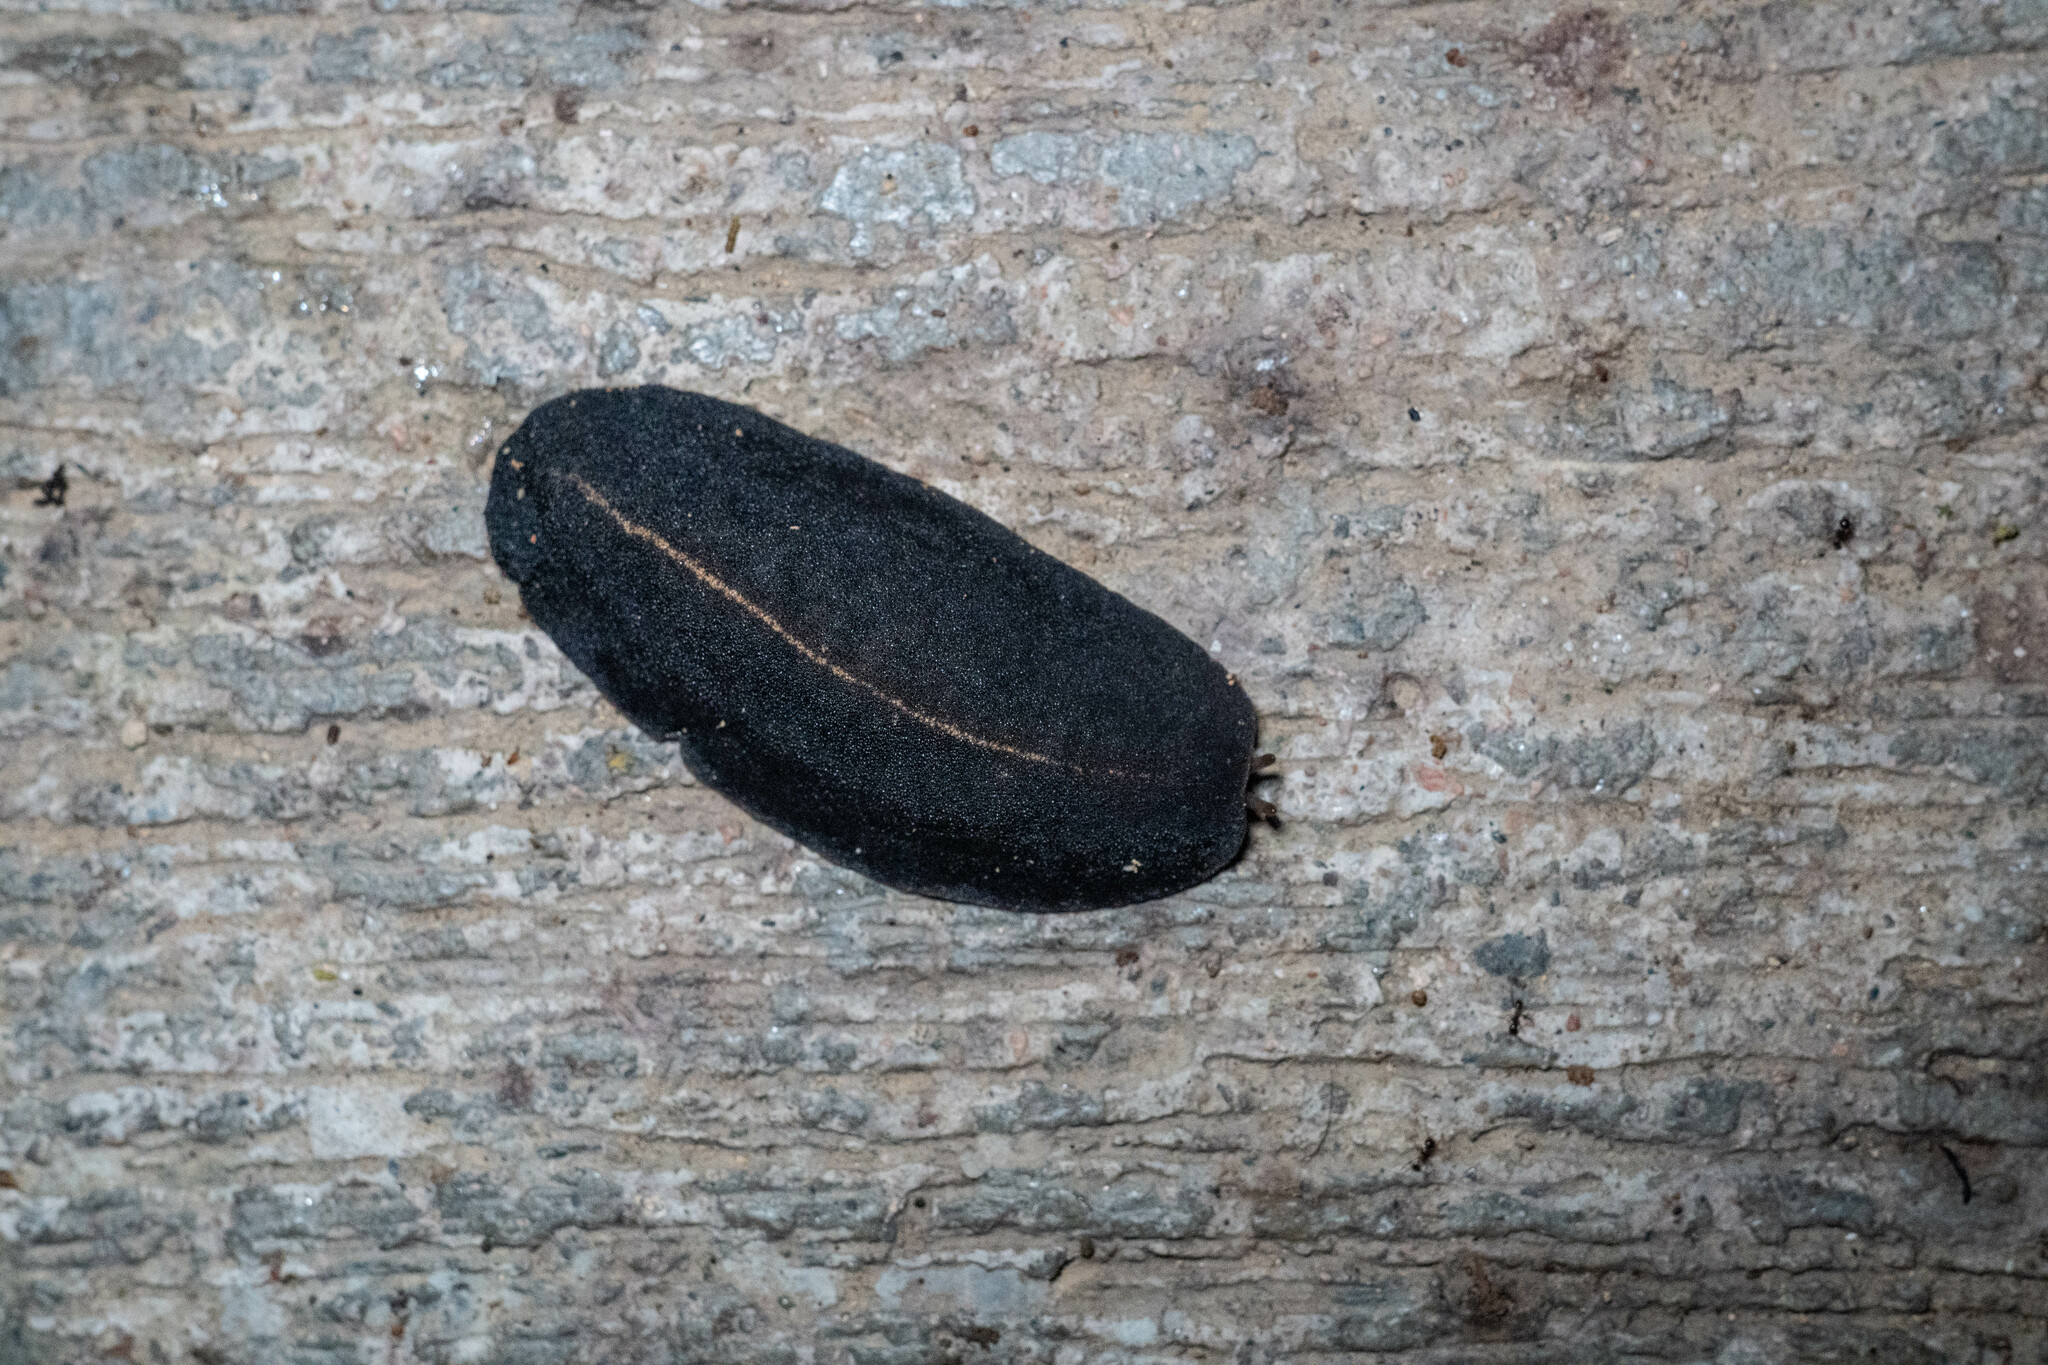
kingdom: Animalia
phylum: Mollusca
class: Gastropoda
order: Systellommatophora
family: Veronicellidae
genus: Laevicaulis
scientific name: Laevicaulis alte
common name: Tropical leatherleaf
